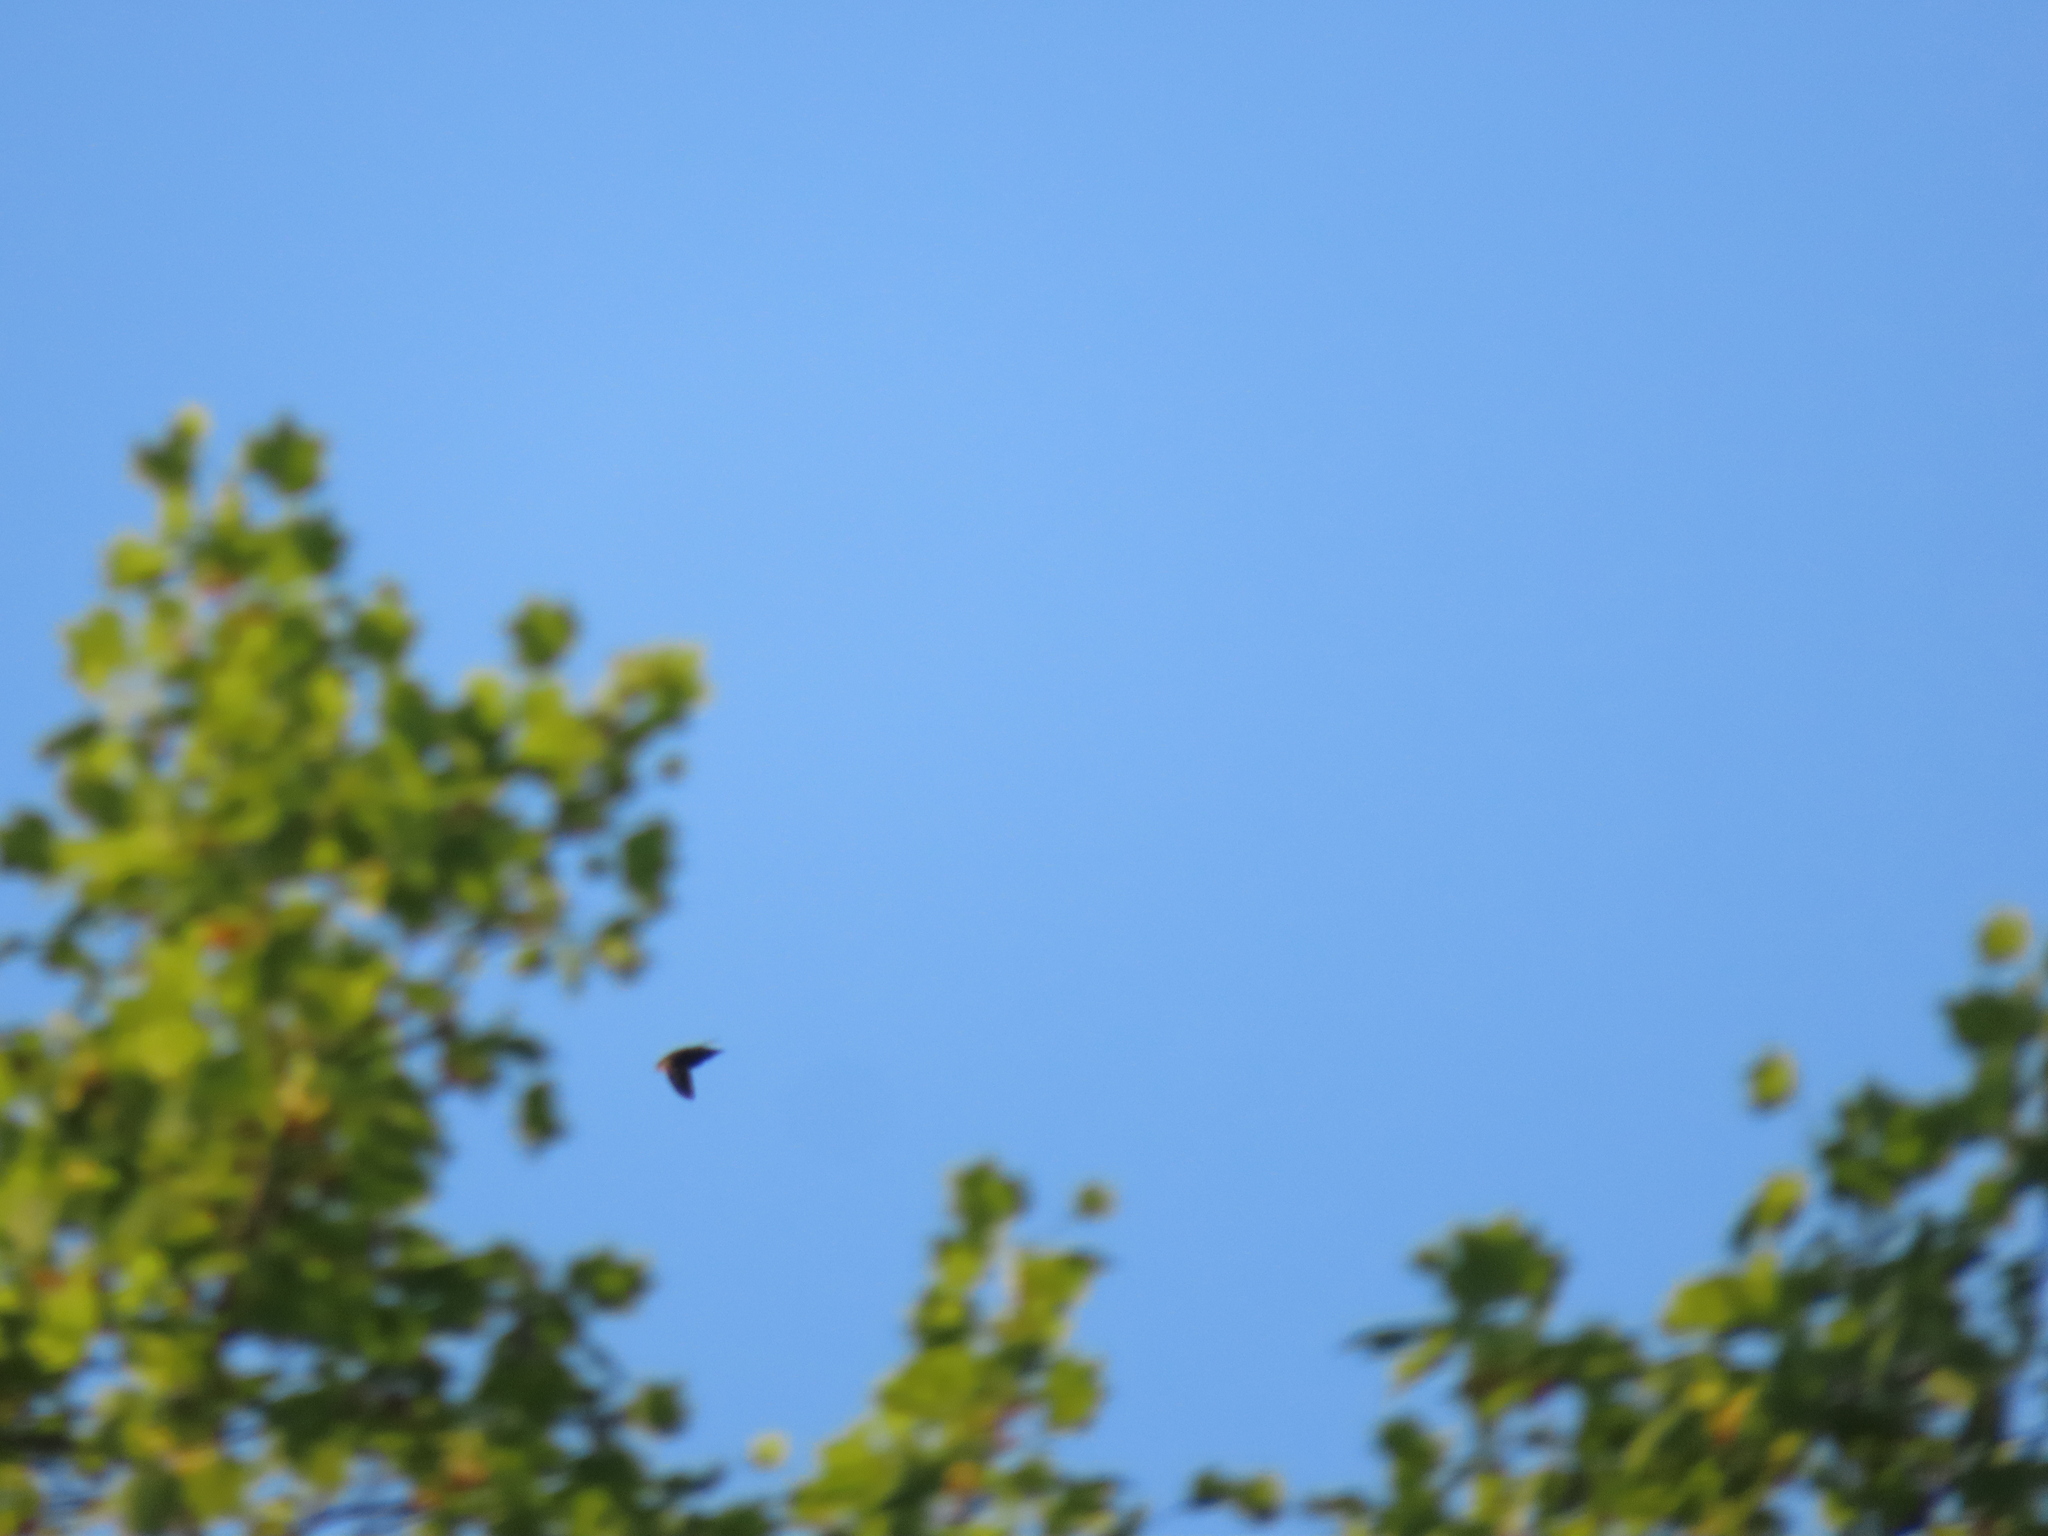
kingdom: Animalia
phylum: Chordata
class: Aves
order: Apodiformes
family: Apodidae
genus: Chaetura
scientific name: Chaetura pelagica
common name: Chimney swift
